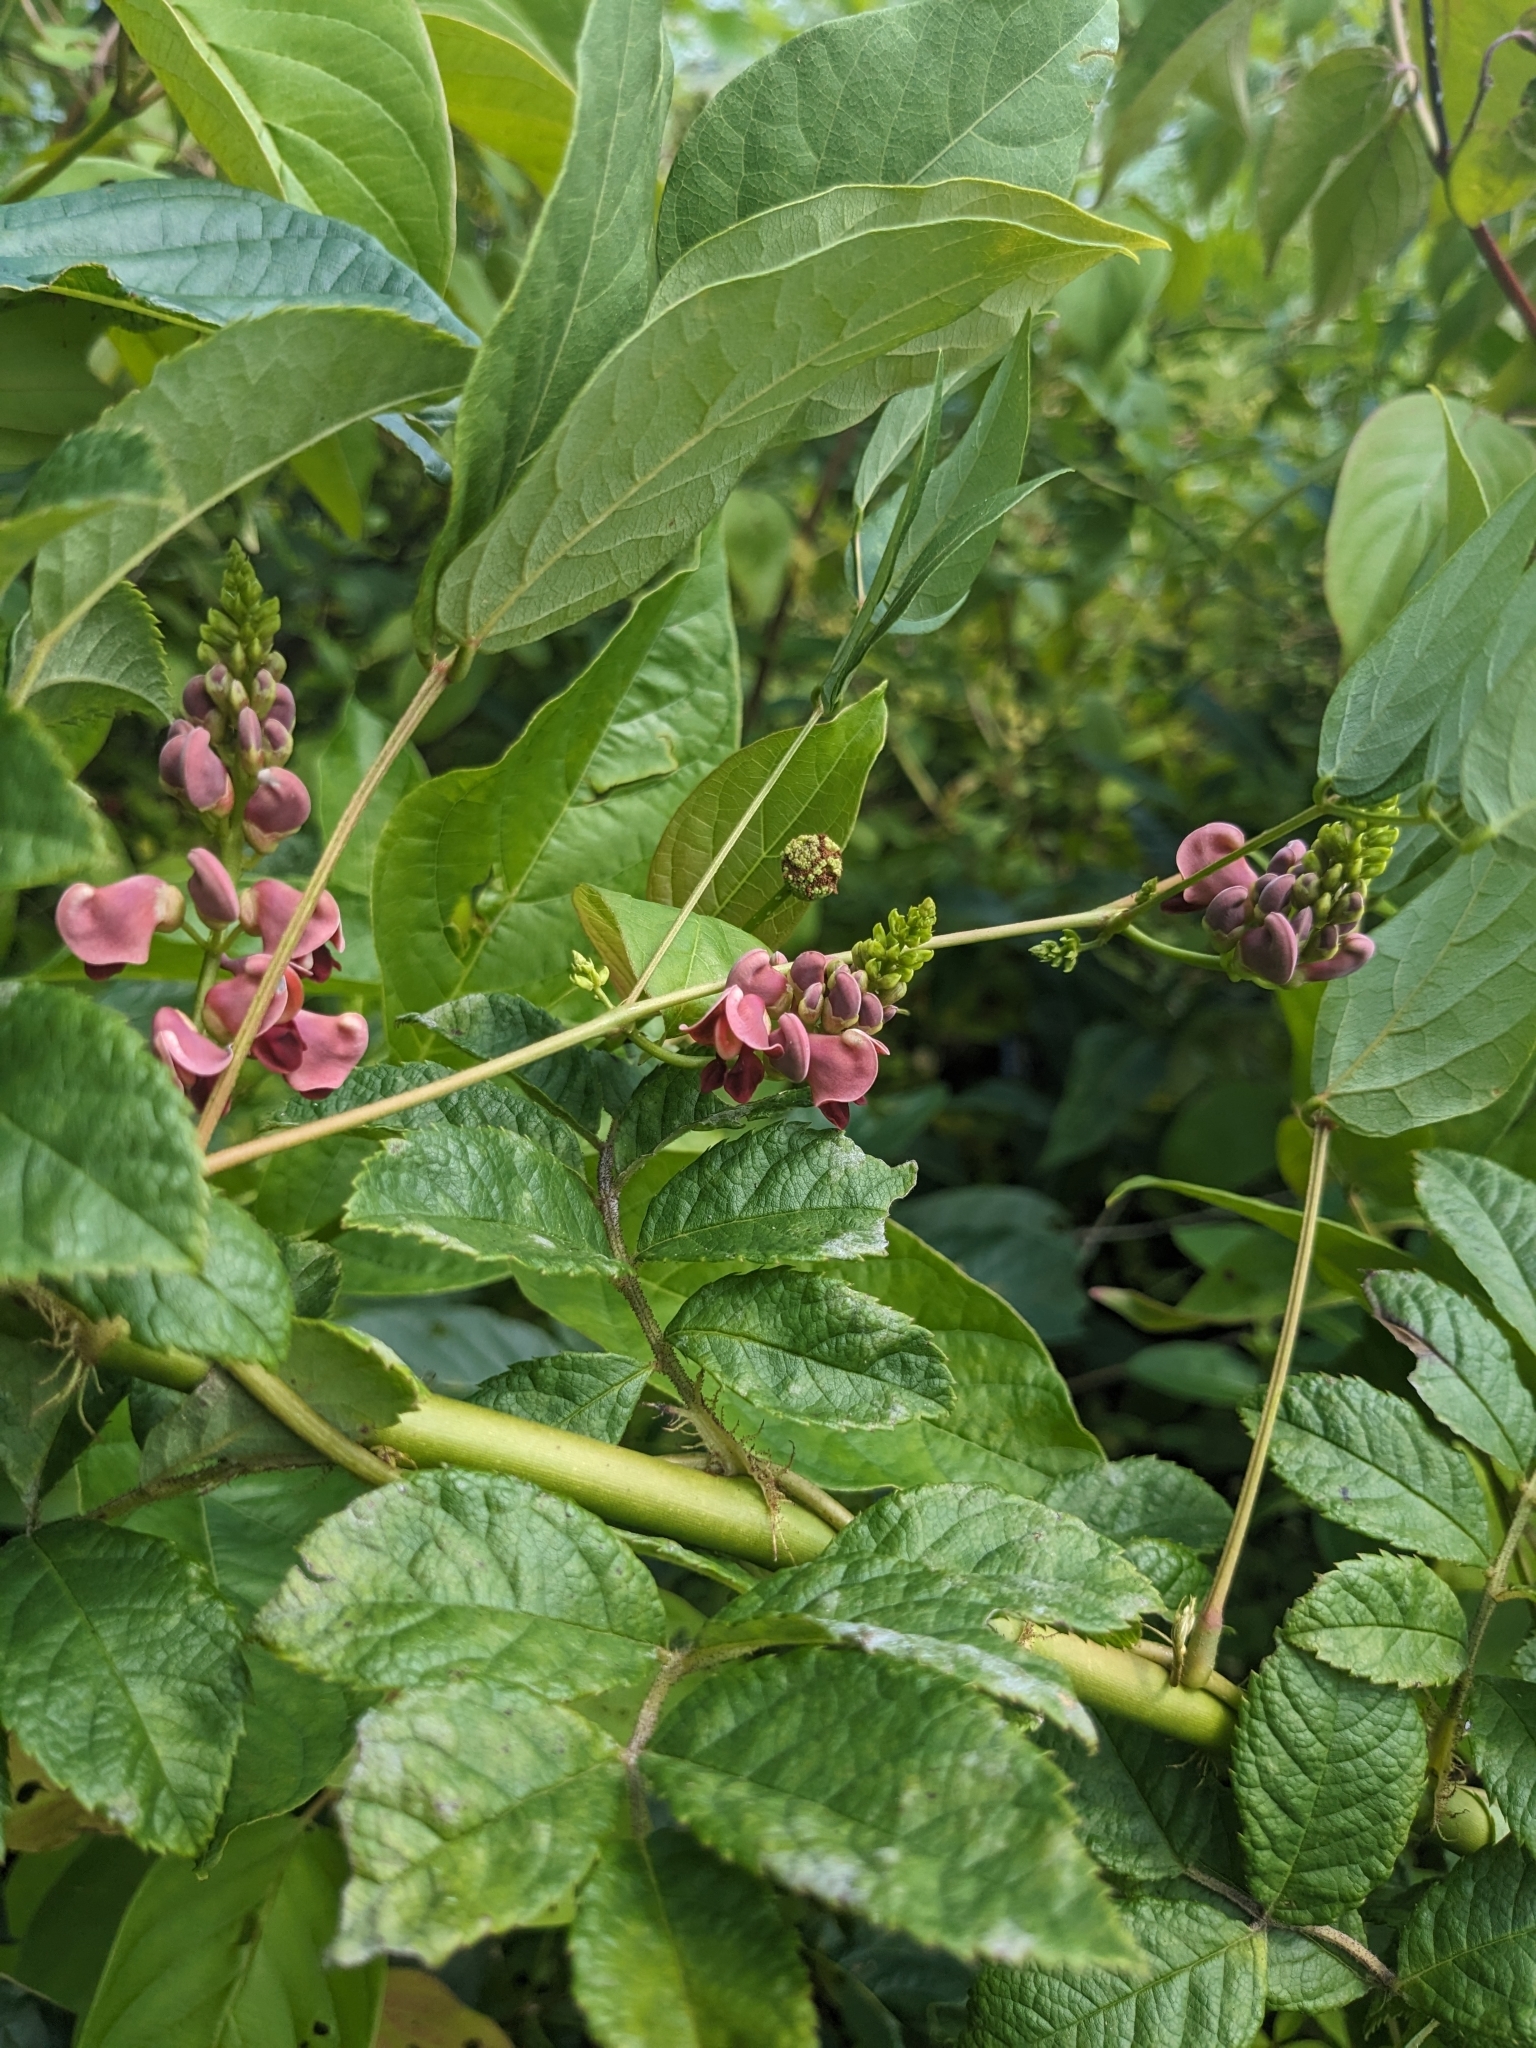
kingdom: Plantae
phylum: Tracheophyta
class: Magnoliopsida
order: Fabales
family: Fabaceae
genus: Apios
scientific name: Apios americana
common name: American potato-bean
